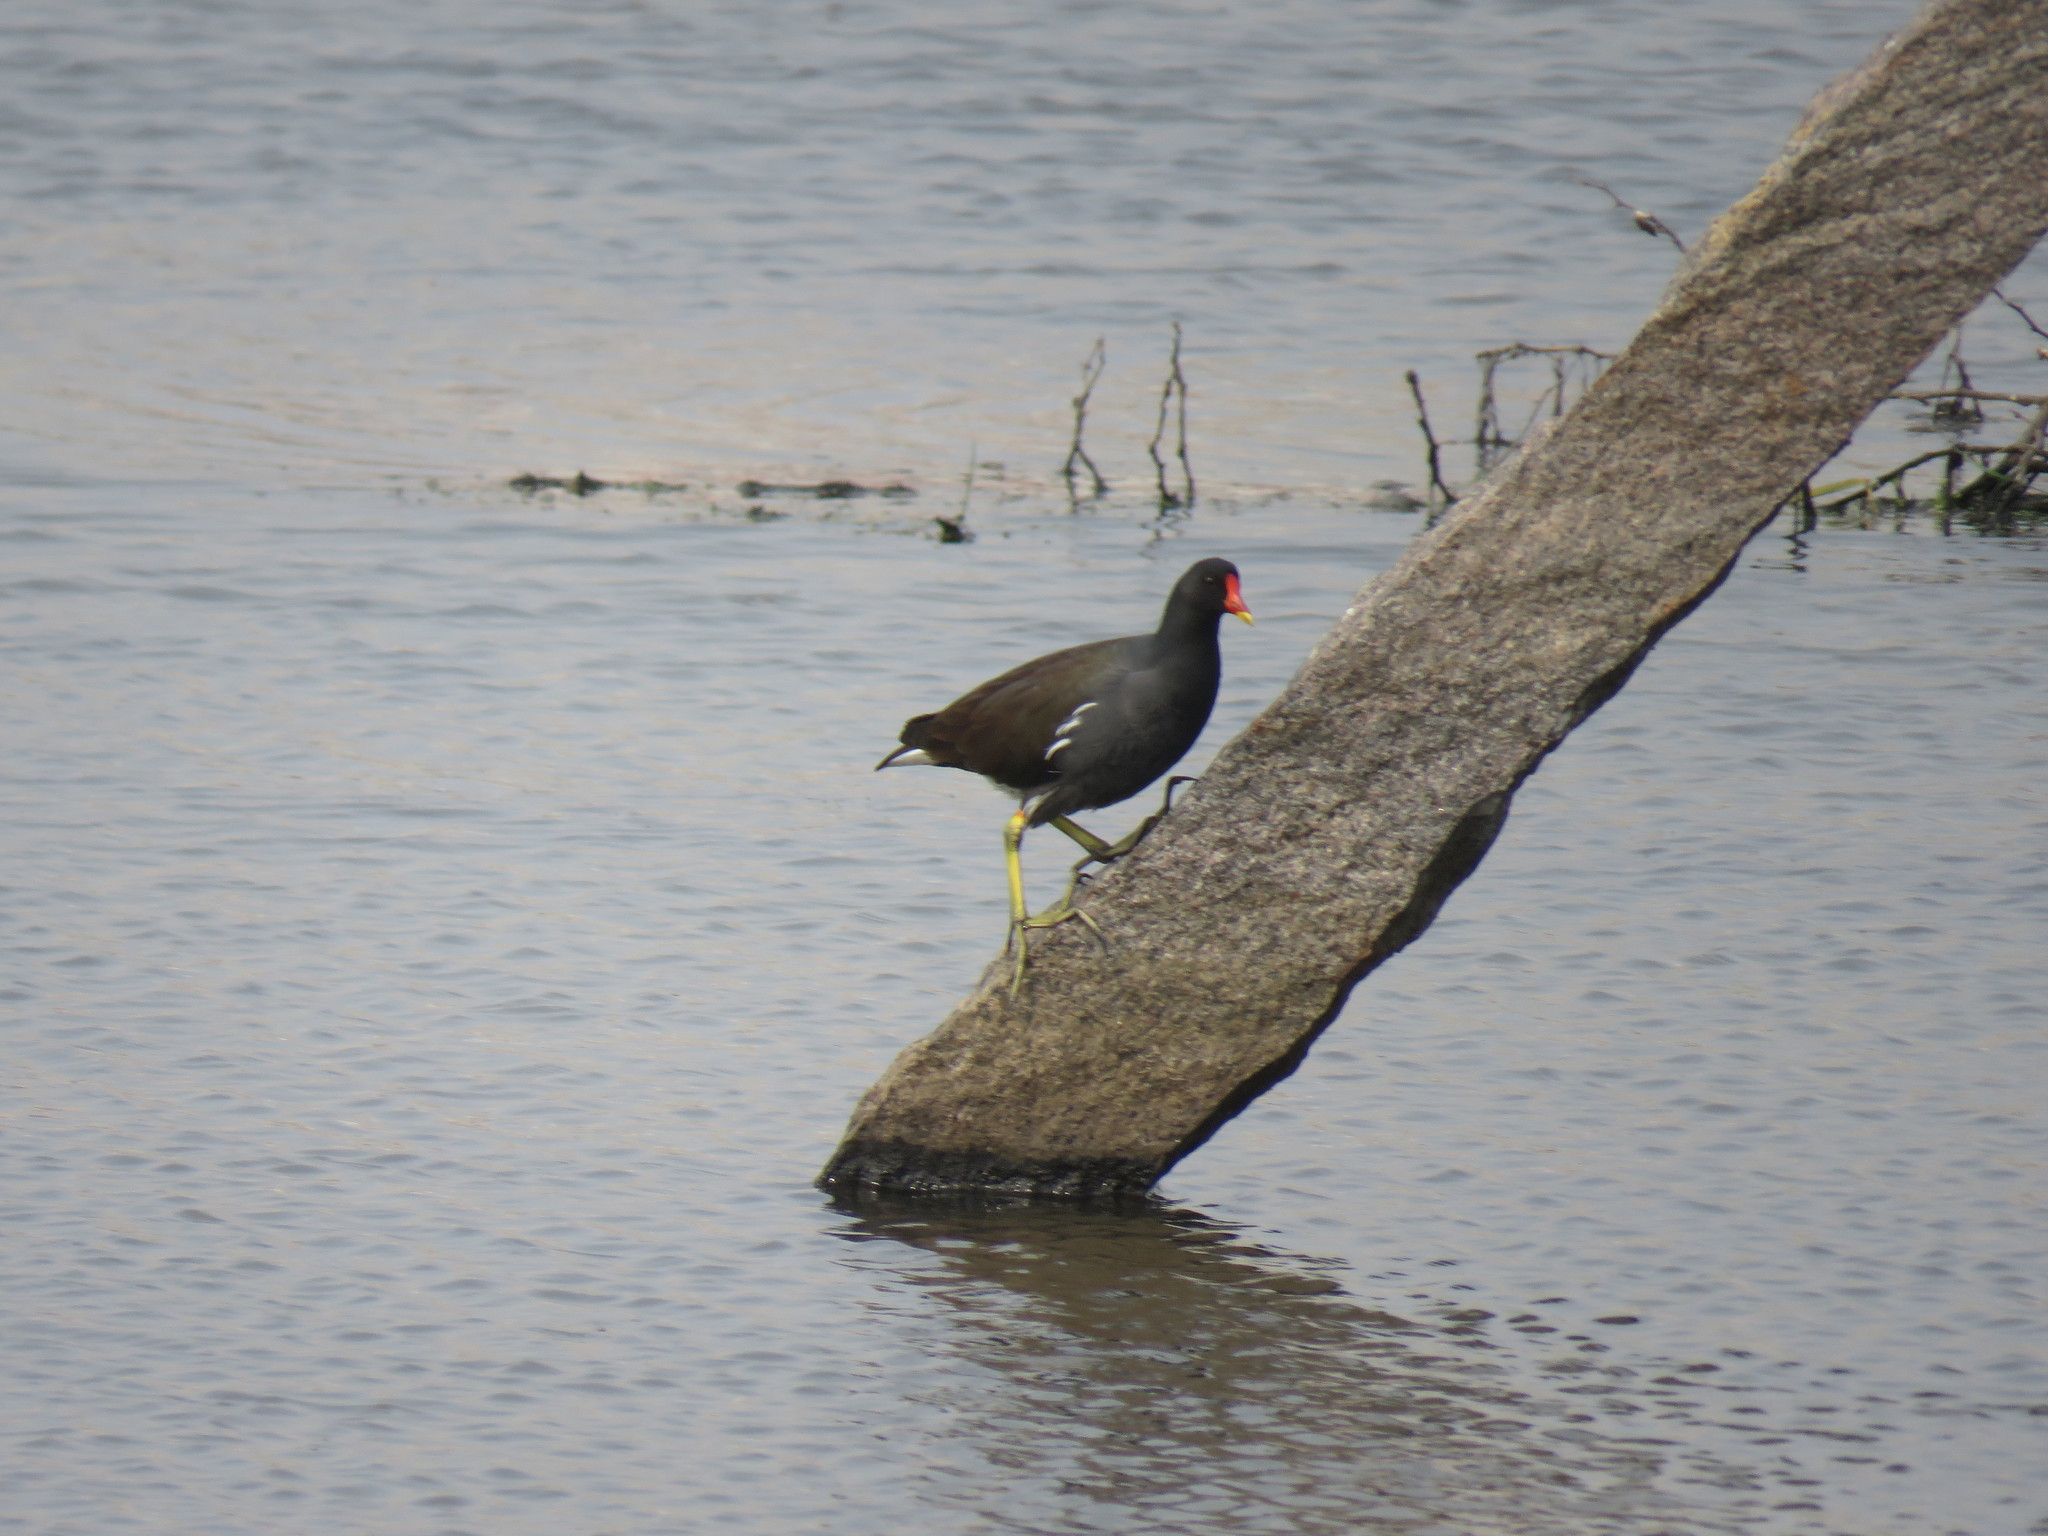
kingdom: Animalia
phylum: Chordata
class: Aves
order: Gruiformes
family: Rallidae
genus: Gallinula
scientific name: Gallinula chloropus
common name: Common moorhen
